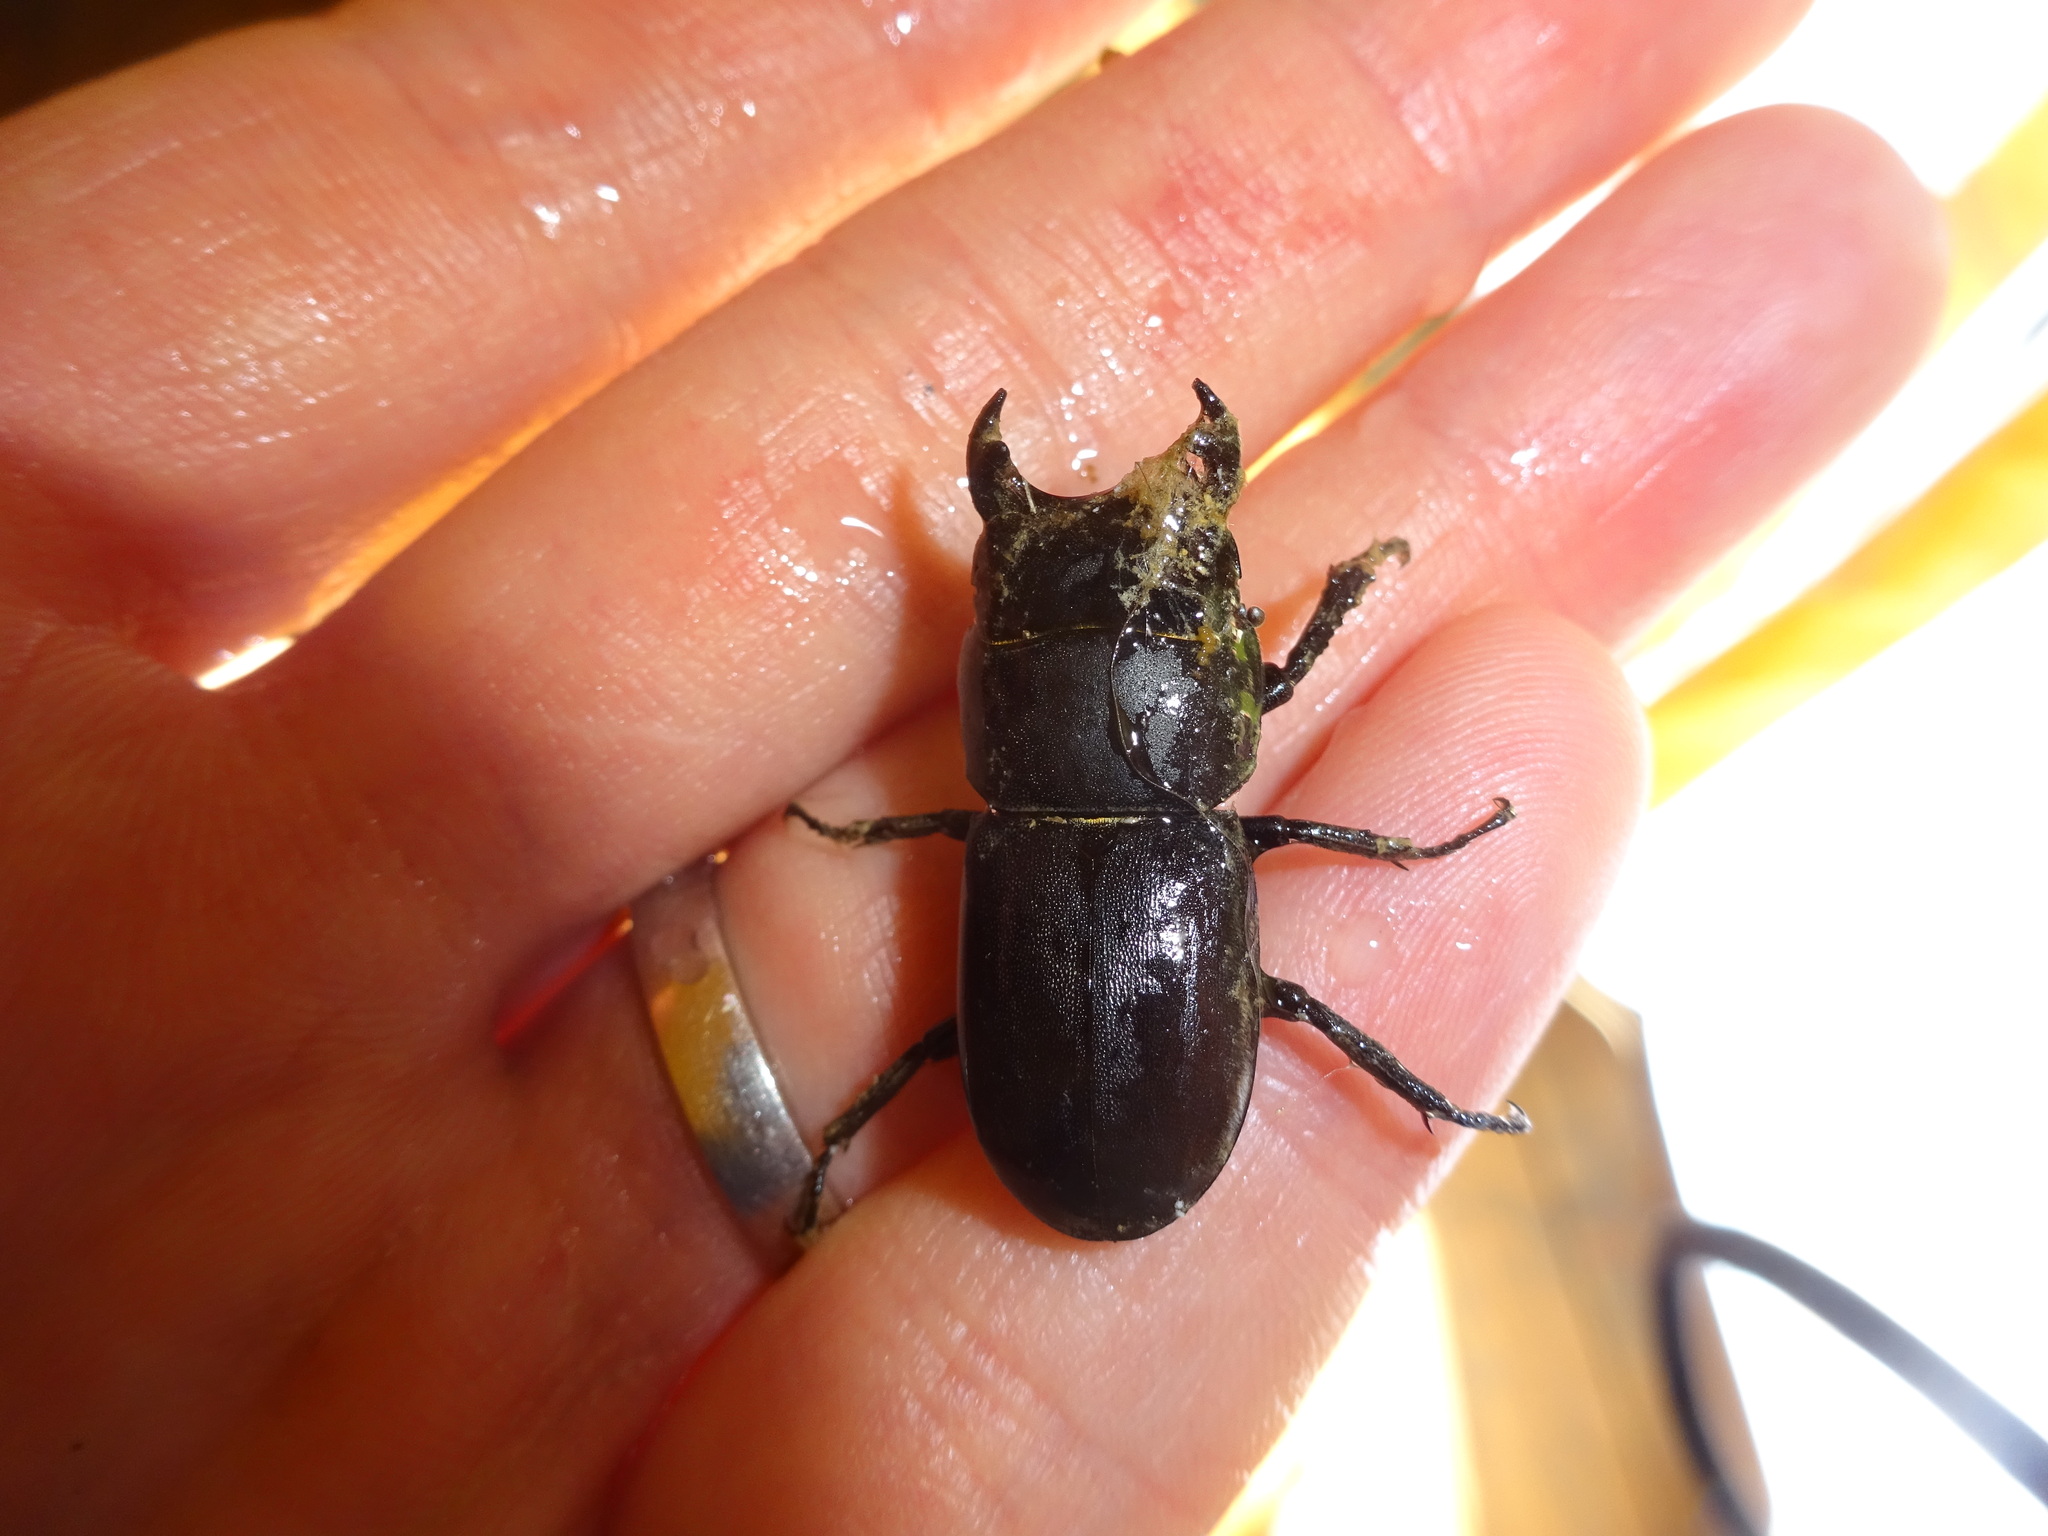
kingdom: Animalia
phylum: Arthropoda
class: Insecta
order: Coleoptera
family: Lucanidae
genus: Dorcus
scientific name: Dorcus parallelipipedus
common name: Lesser stag beetle
